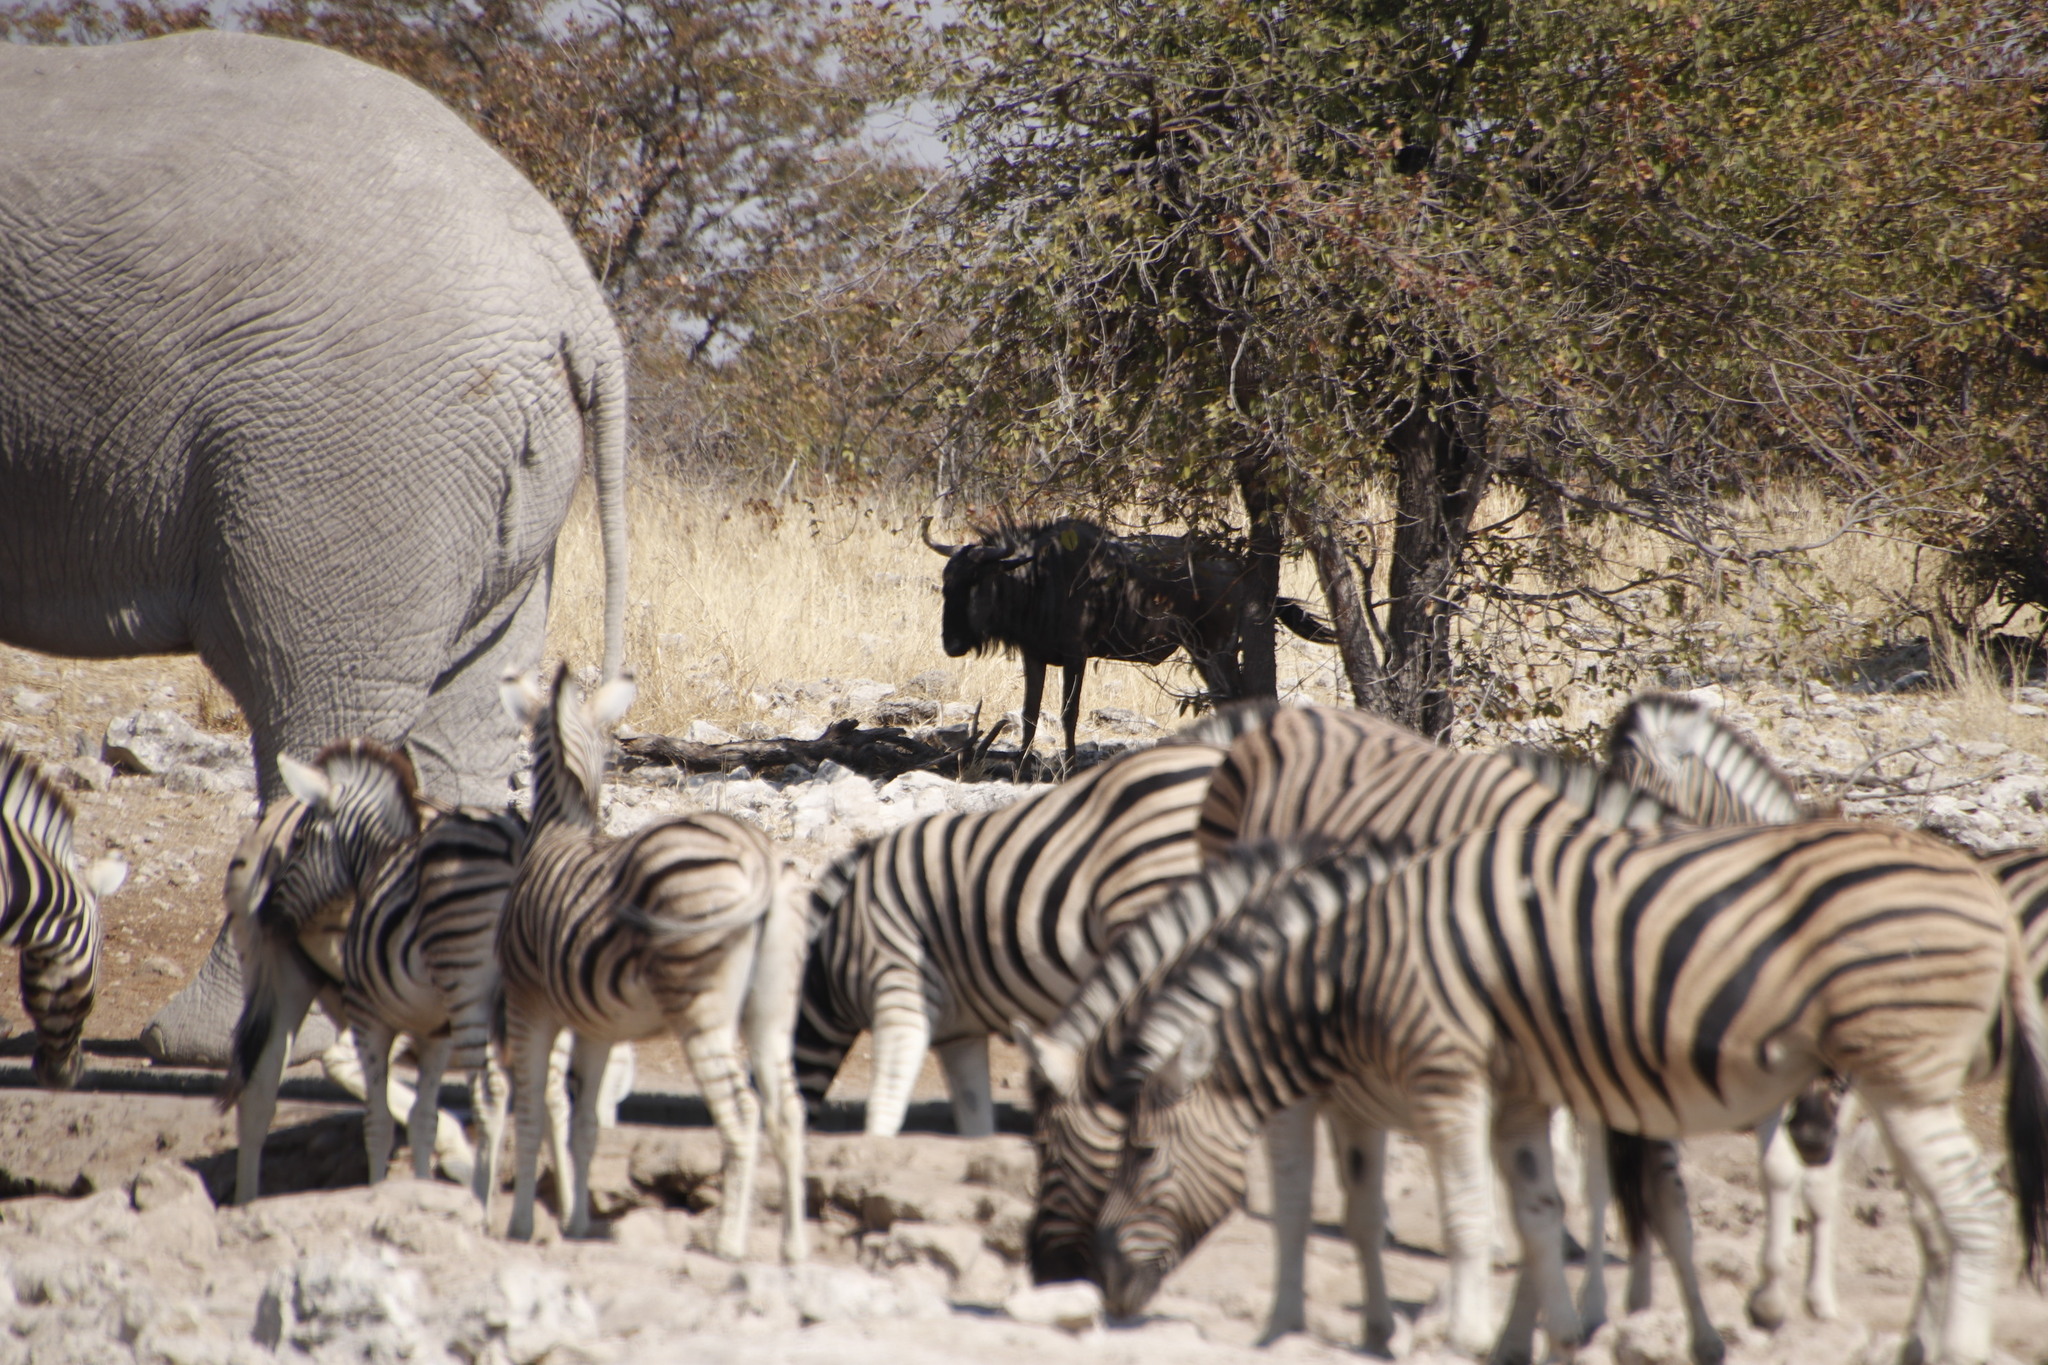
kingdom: Animalia
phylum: Chordata
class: Mammalia
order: Artiodactyla
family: Bovidae
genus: Connochaetes
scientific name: Connochaetes taurinus
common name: Blue wildebeest
